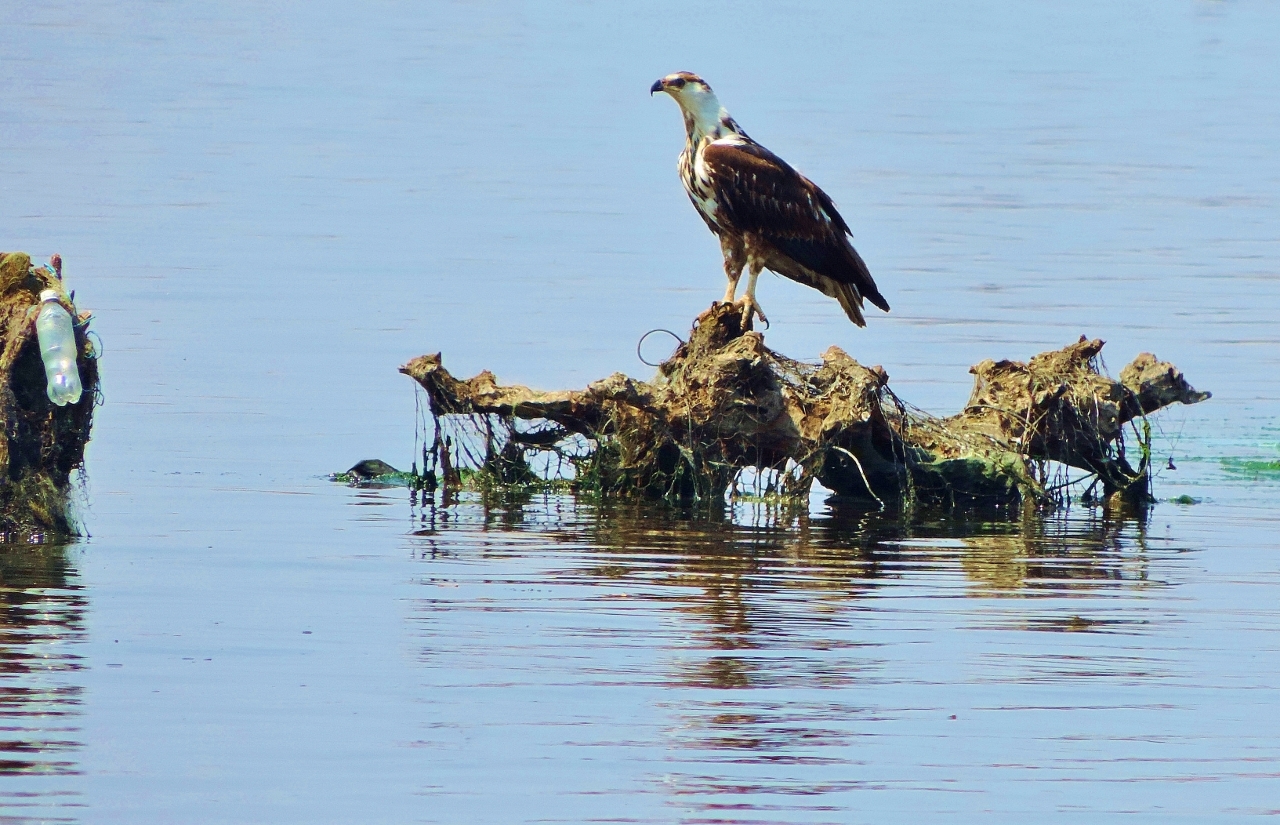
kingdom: Animalia
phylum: Chordata
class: Aves
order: Accipitriformes
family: Accipitridae
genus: Haliaeetus
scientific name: Haliaeetus vocifer
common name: African fish eagle
